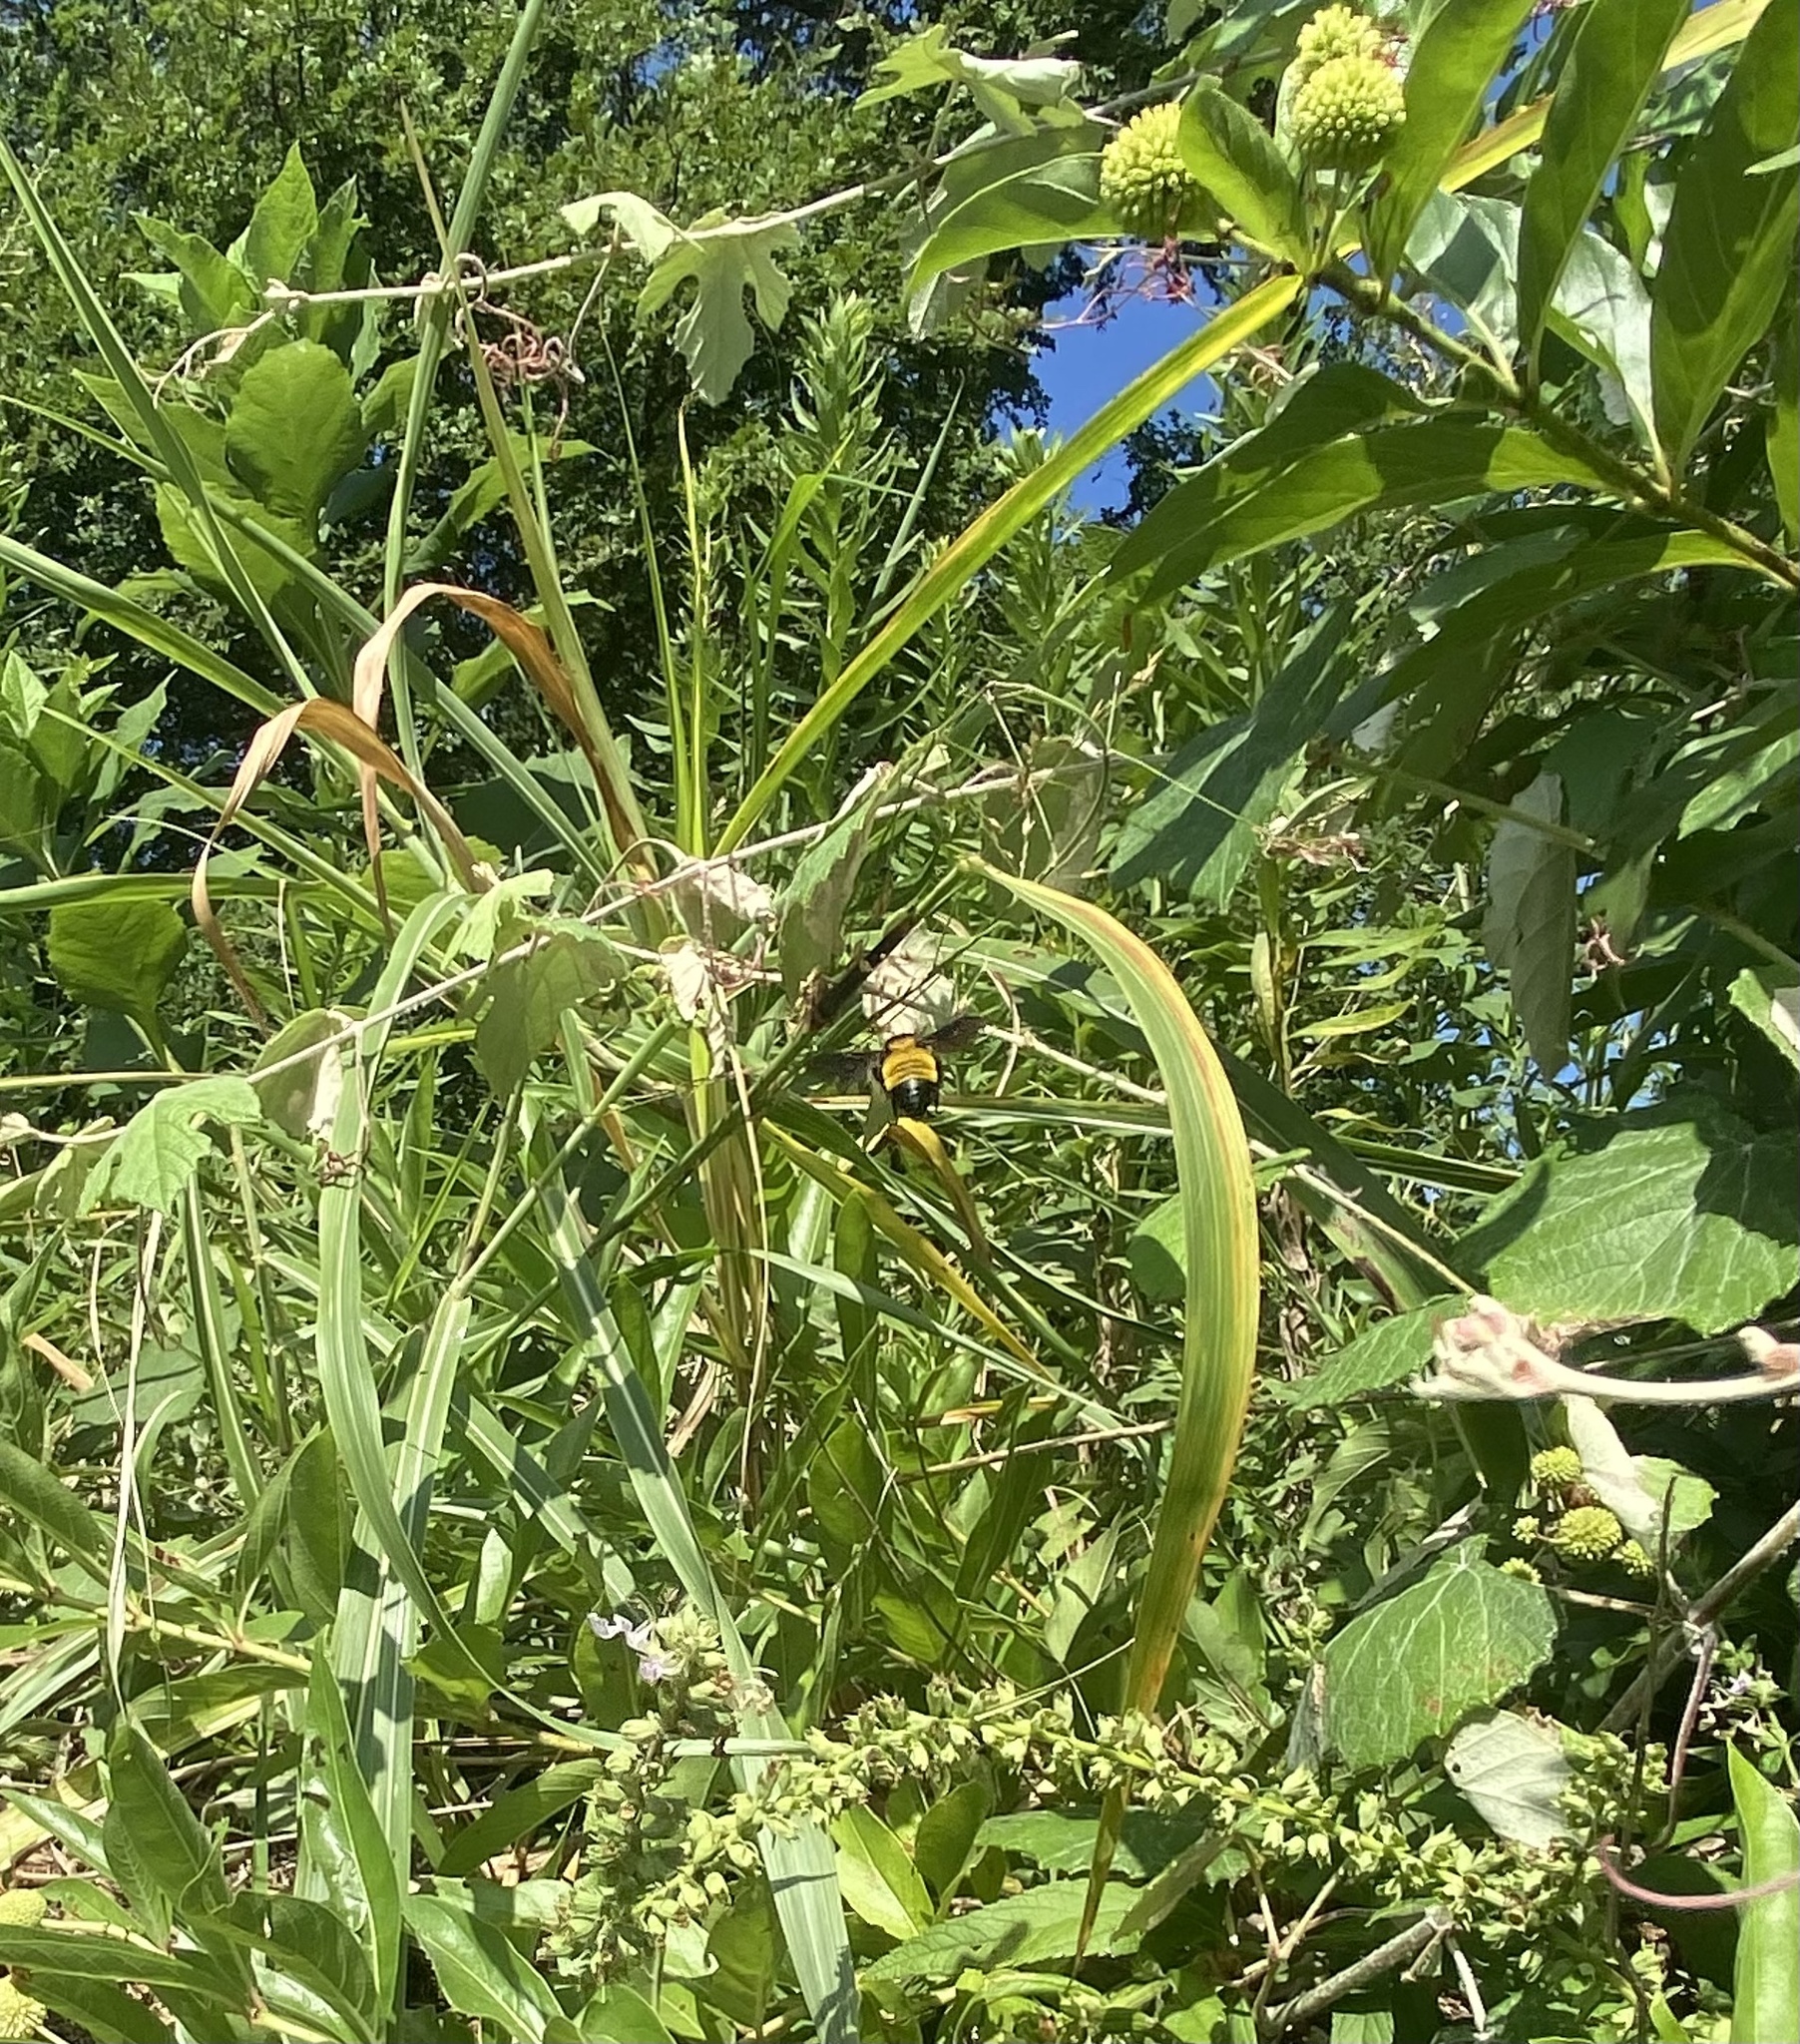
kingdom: Animalia
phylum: Arthropoda
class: Insecta
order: Hymenoptera
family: Apidae
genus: Bombus
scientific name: Bombus sonorus
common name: Sonoran bumble bee
